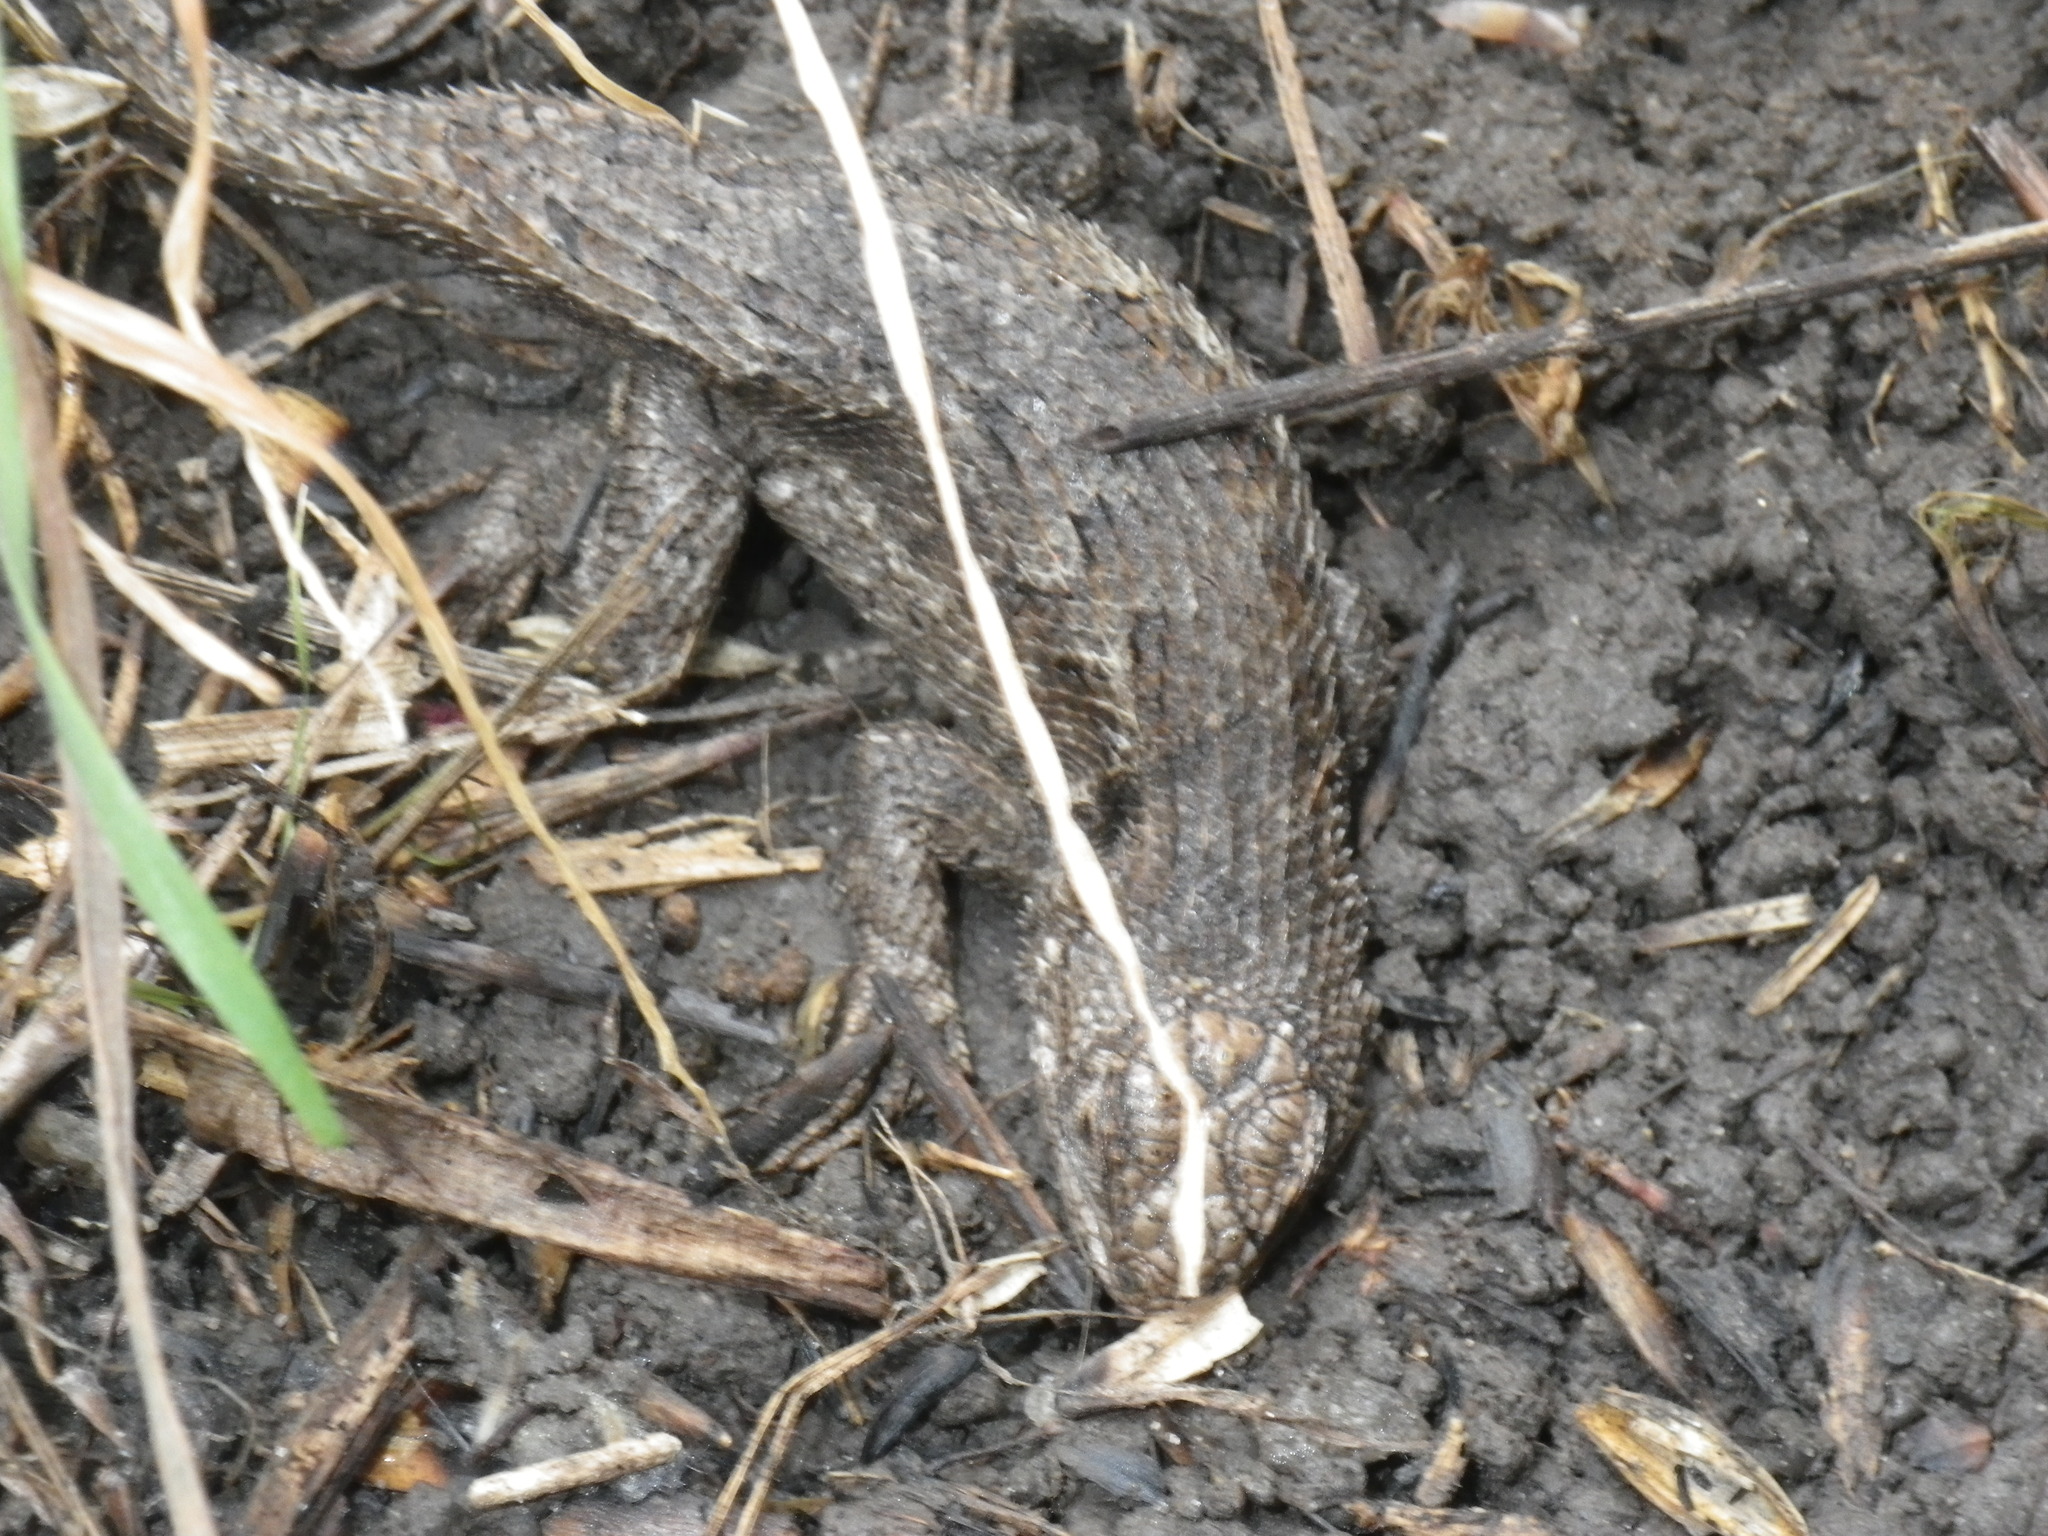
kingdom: Animalia
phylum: Chordata
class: Squamata
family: Phrynosomatidae
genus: Sceloporus
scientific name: Sceloporus occidentalis
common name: Western fence lizard
